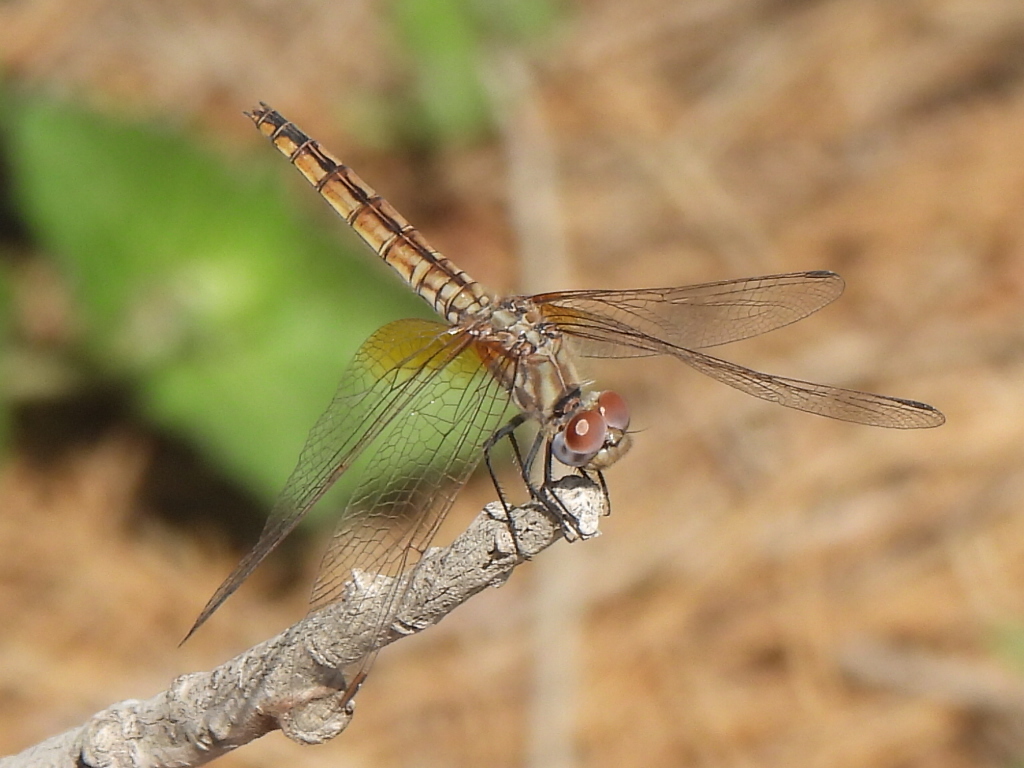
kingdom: Animalia
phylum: Arthropoda
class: Insecta
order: Odonata
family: Libellulidae
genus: Trithemis
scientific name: Trithemis annulata
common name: Violet dropwing
